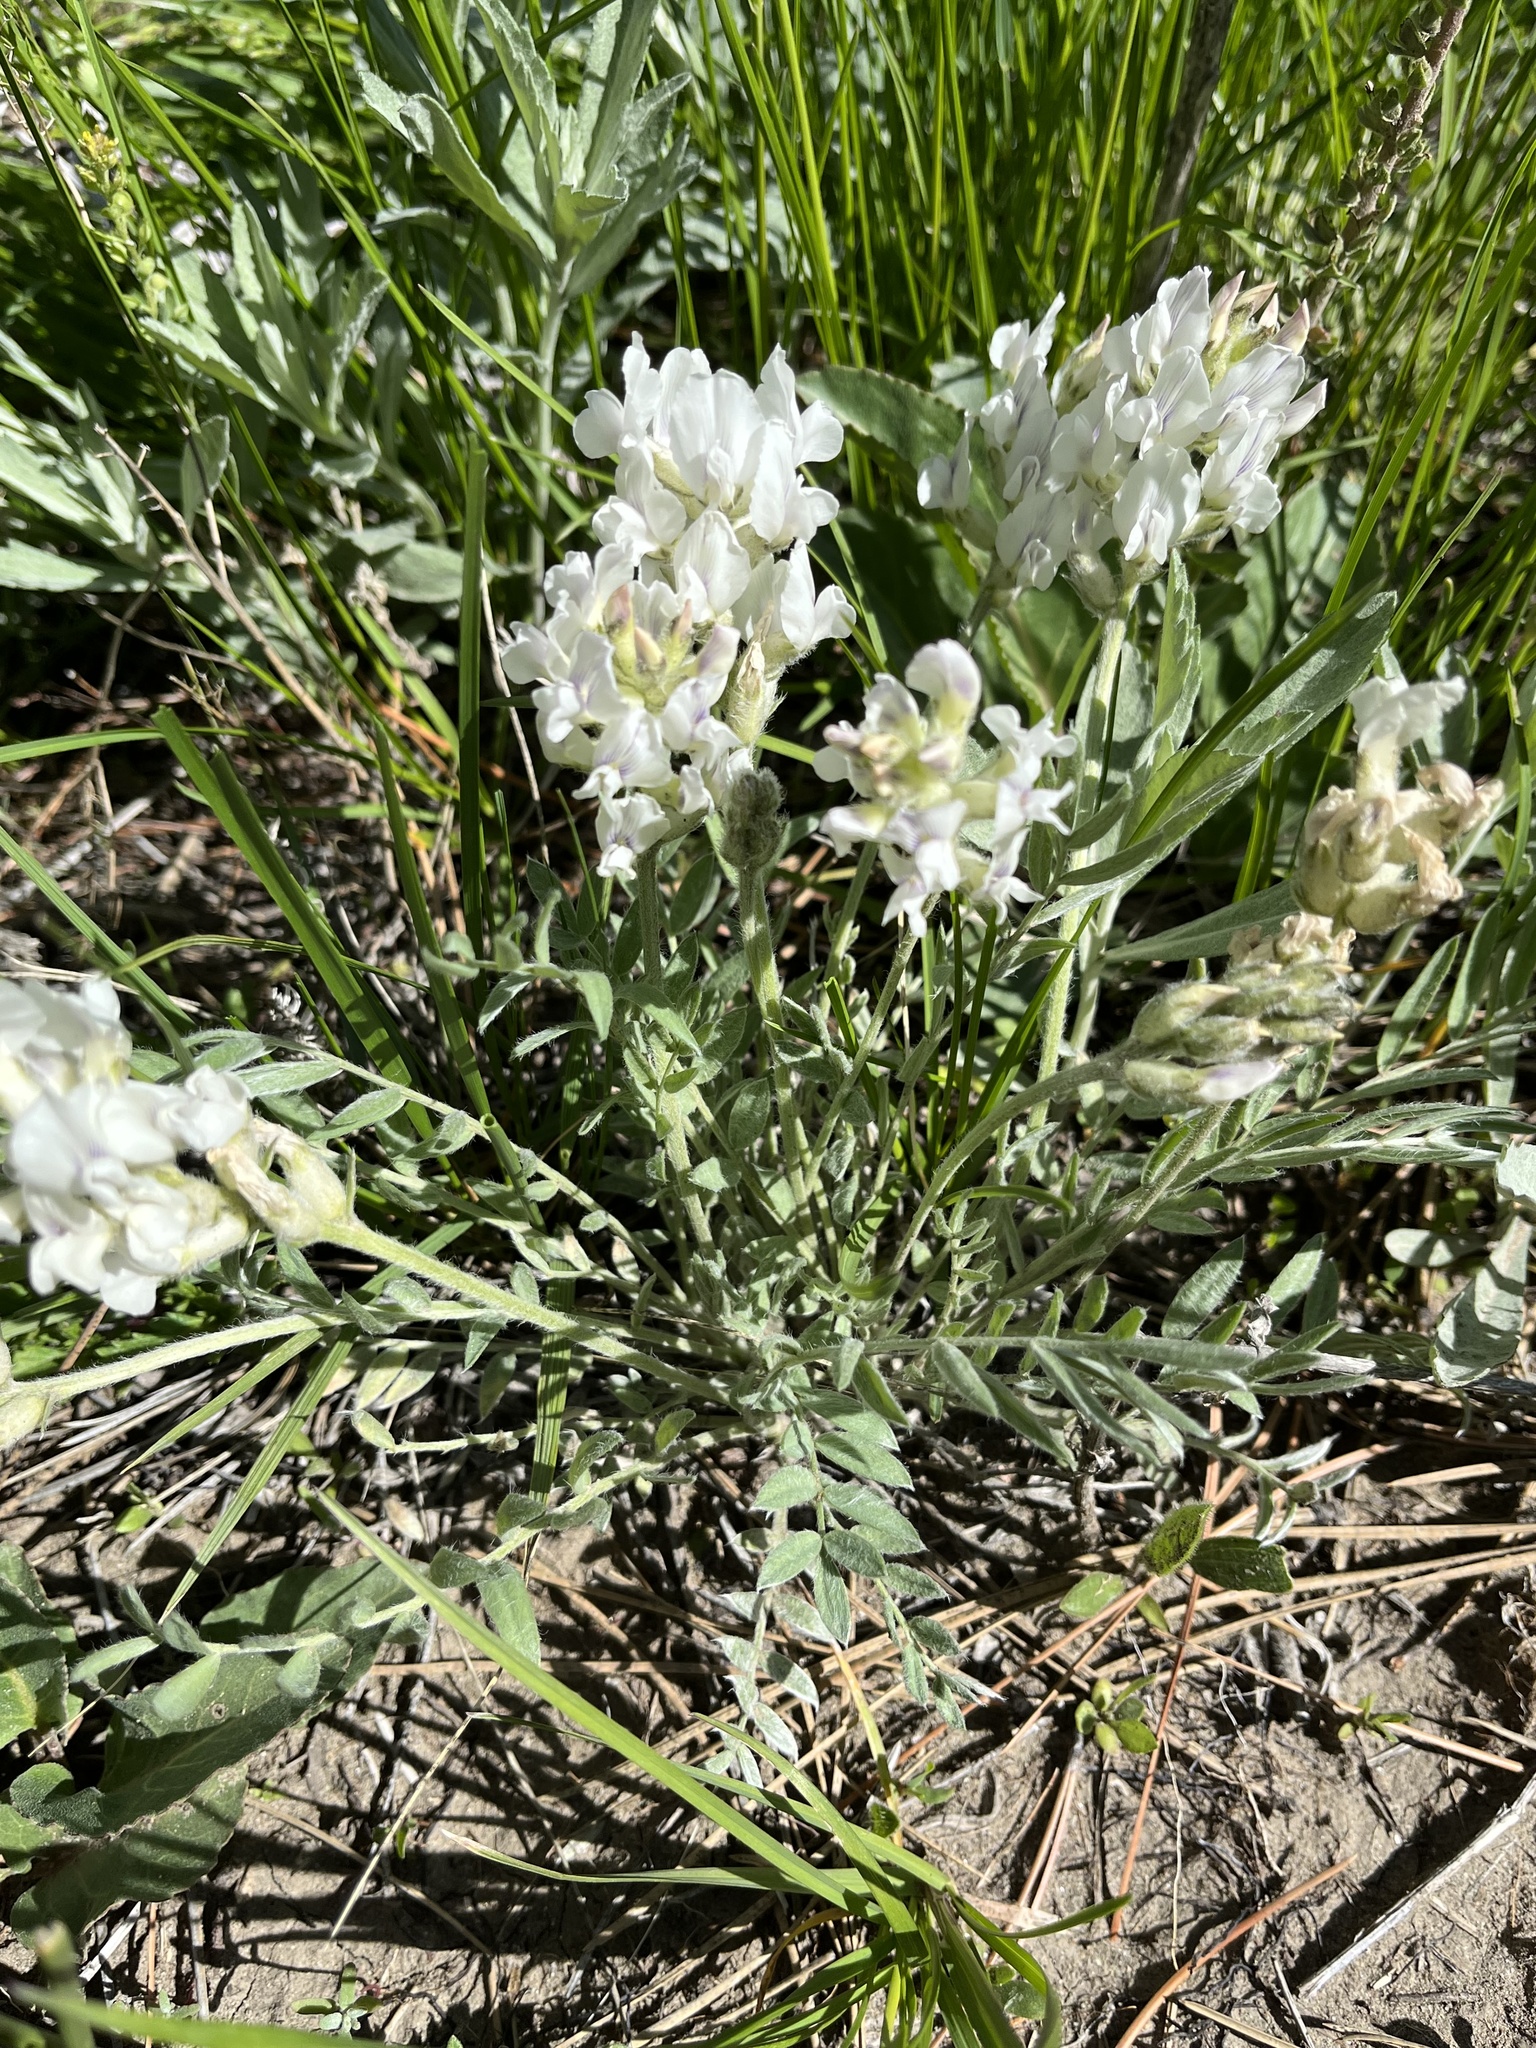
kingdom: Plantae
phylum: Tracheophyta
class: Magnoliopsida
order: Fabales
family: Fabaceae
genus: Oxytropis
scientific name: Oxytropis sericea
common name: Silky locoweed
